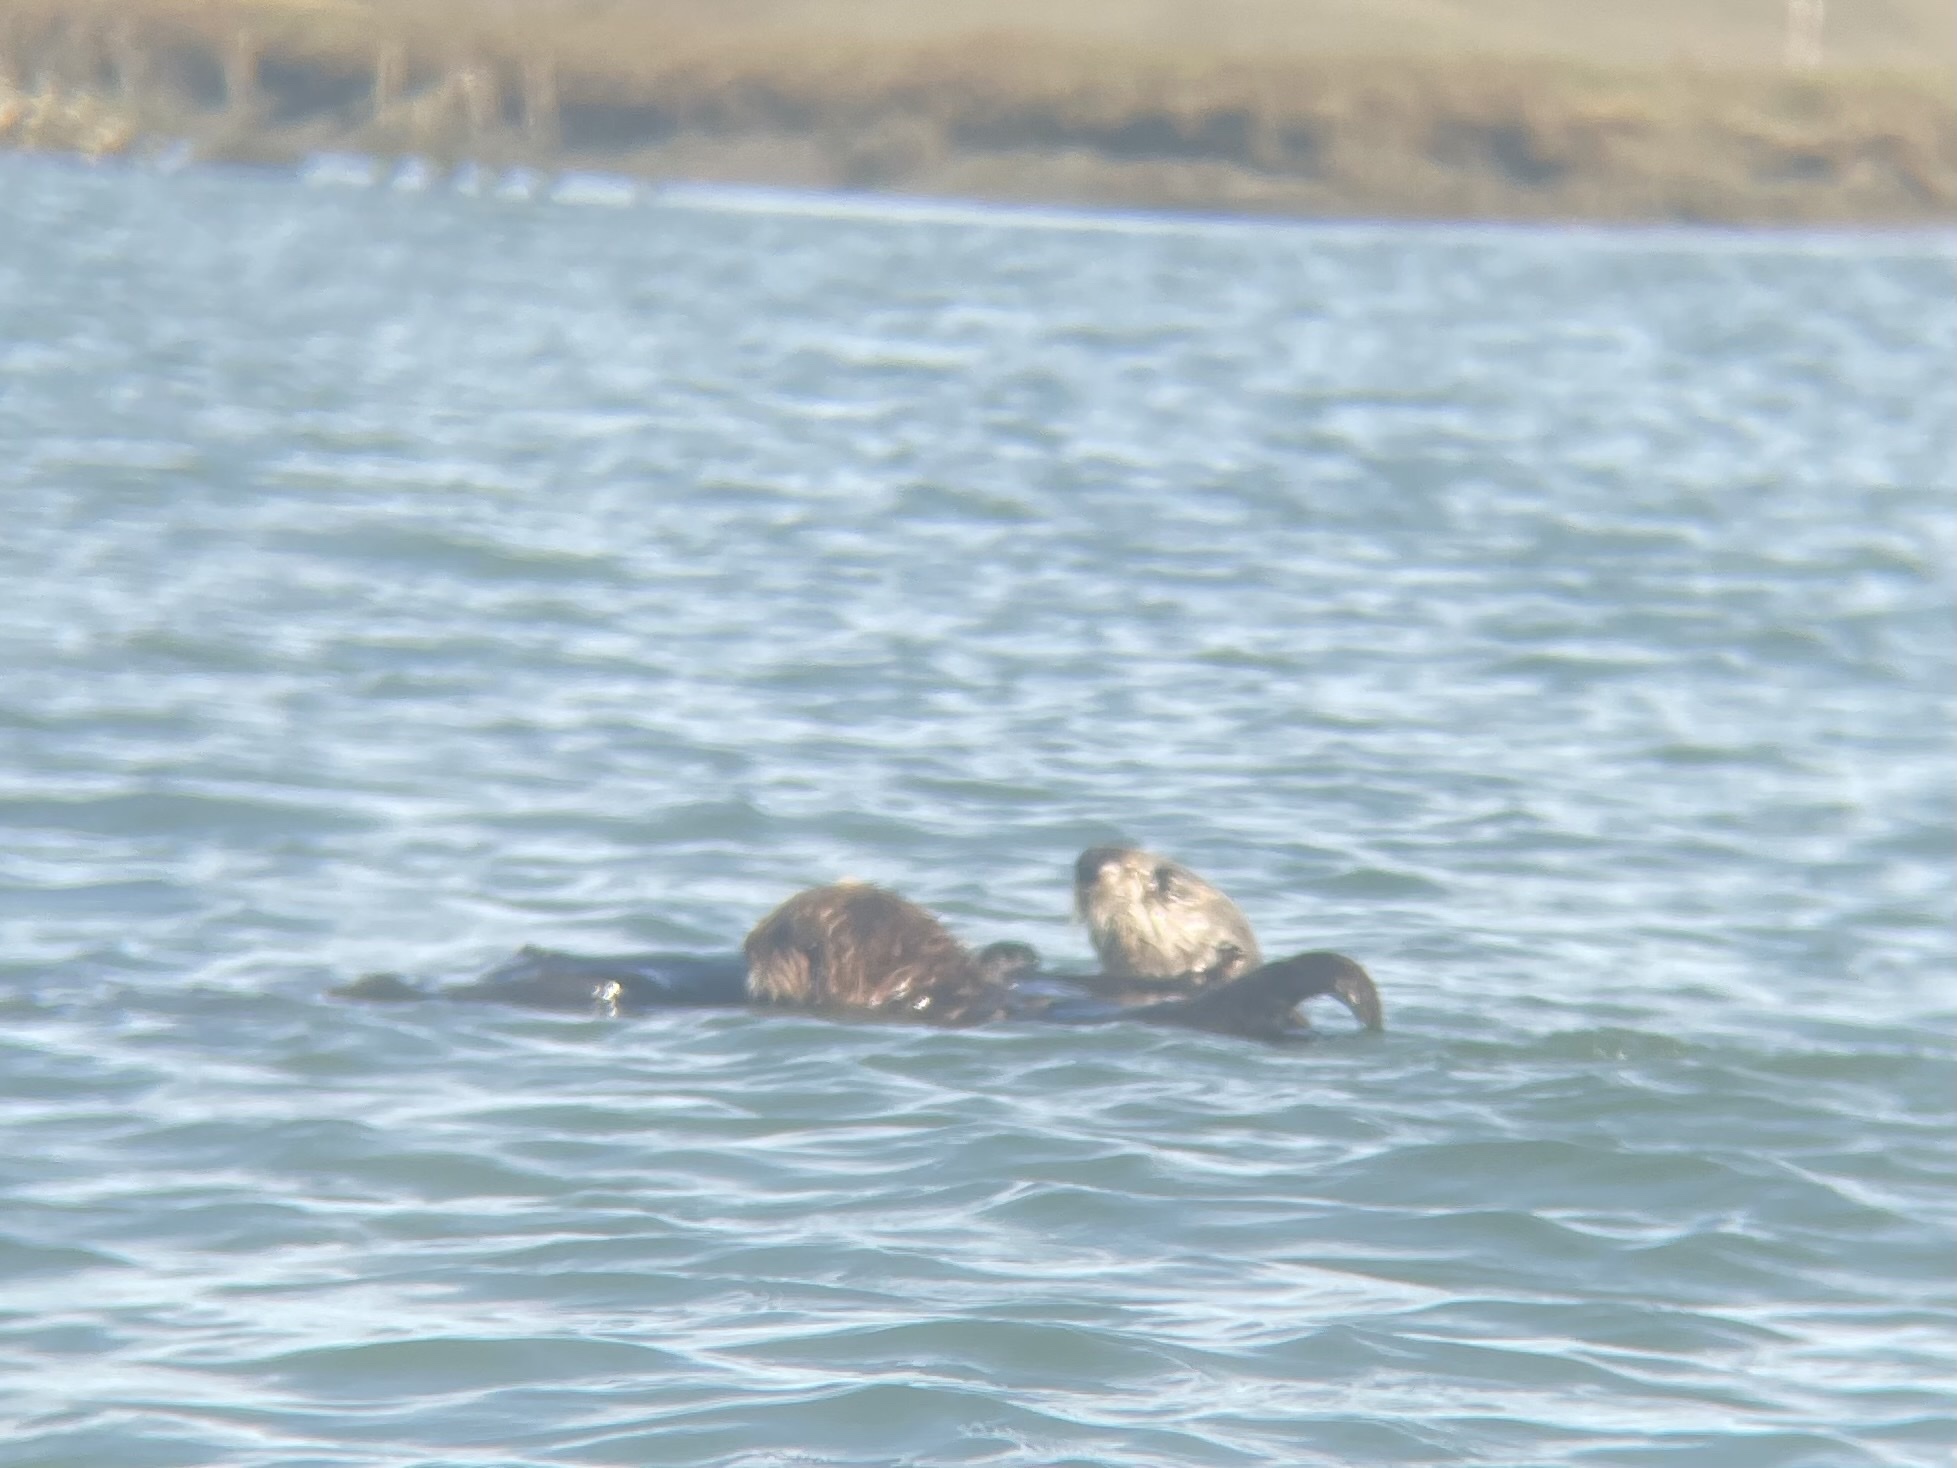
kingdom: Animalia
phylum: Chordata
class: Mammalia
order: Carnivora
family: Mustelidae
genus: Enhydra
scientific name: Enhydra lutris
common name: Sea otter
